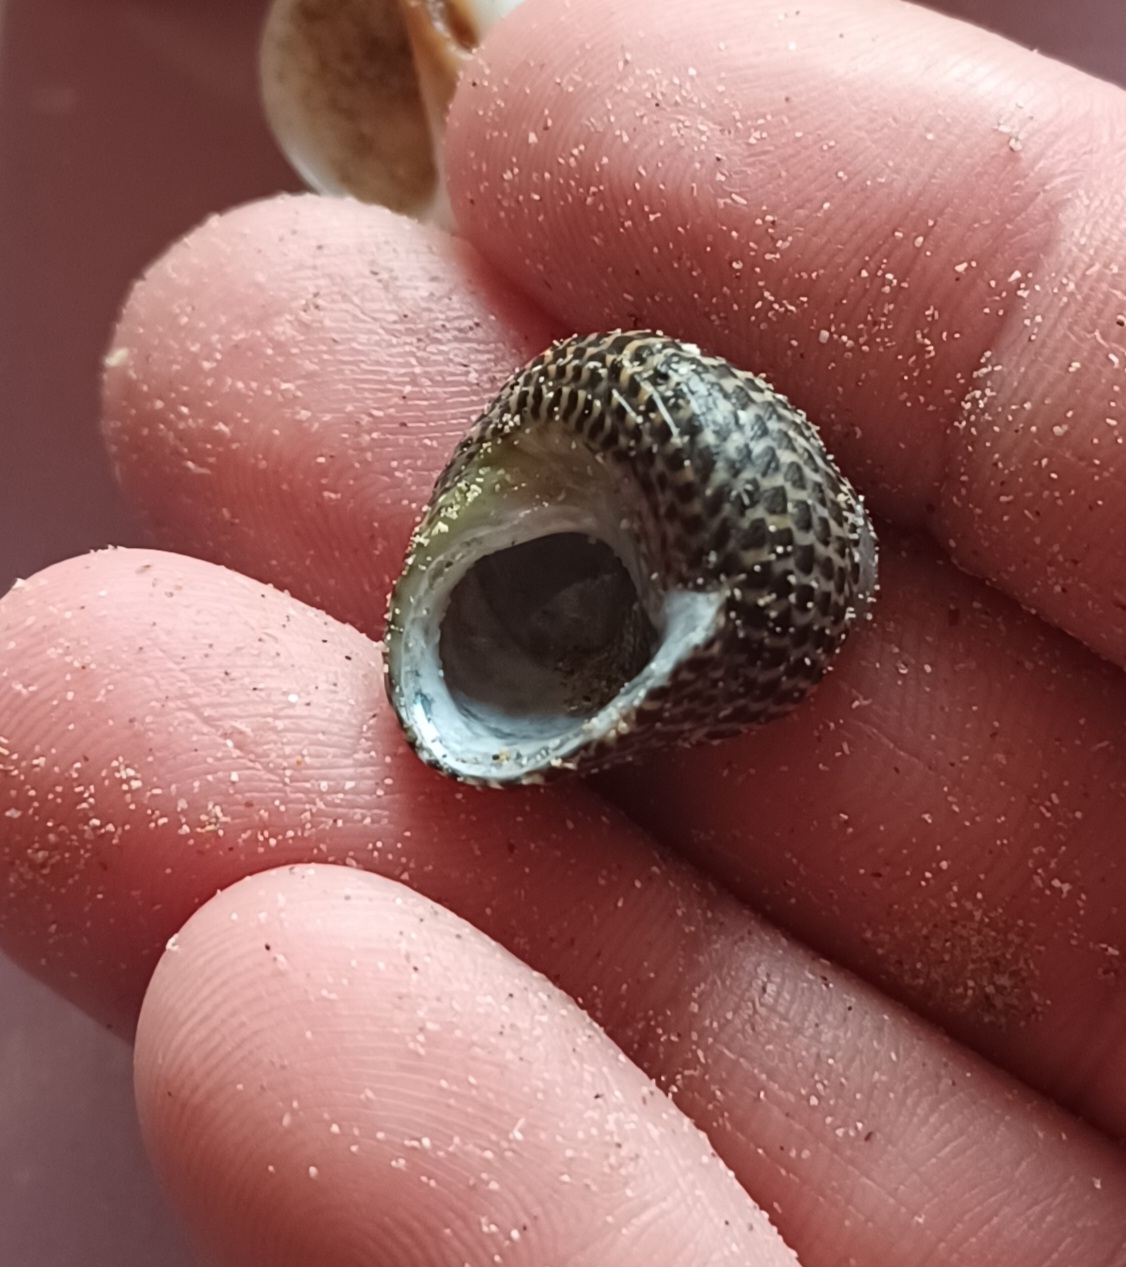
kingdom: Animalia
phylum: Mollusca
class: Gastropoda
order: Trochida
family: Trochidae
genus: Chlorodiloma
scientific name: Chlorodiloma adelaidae
